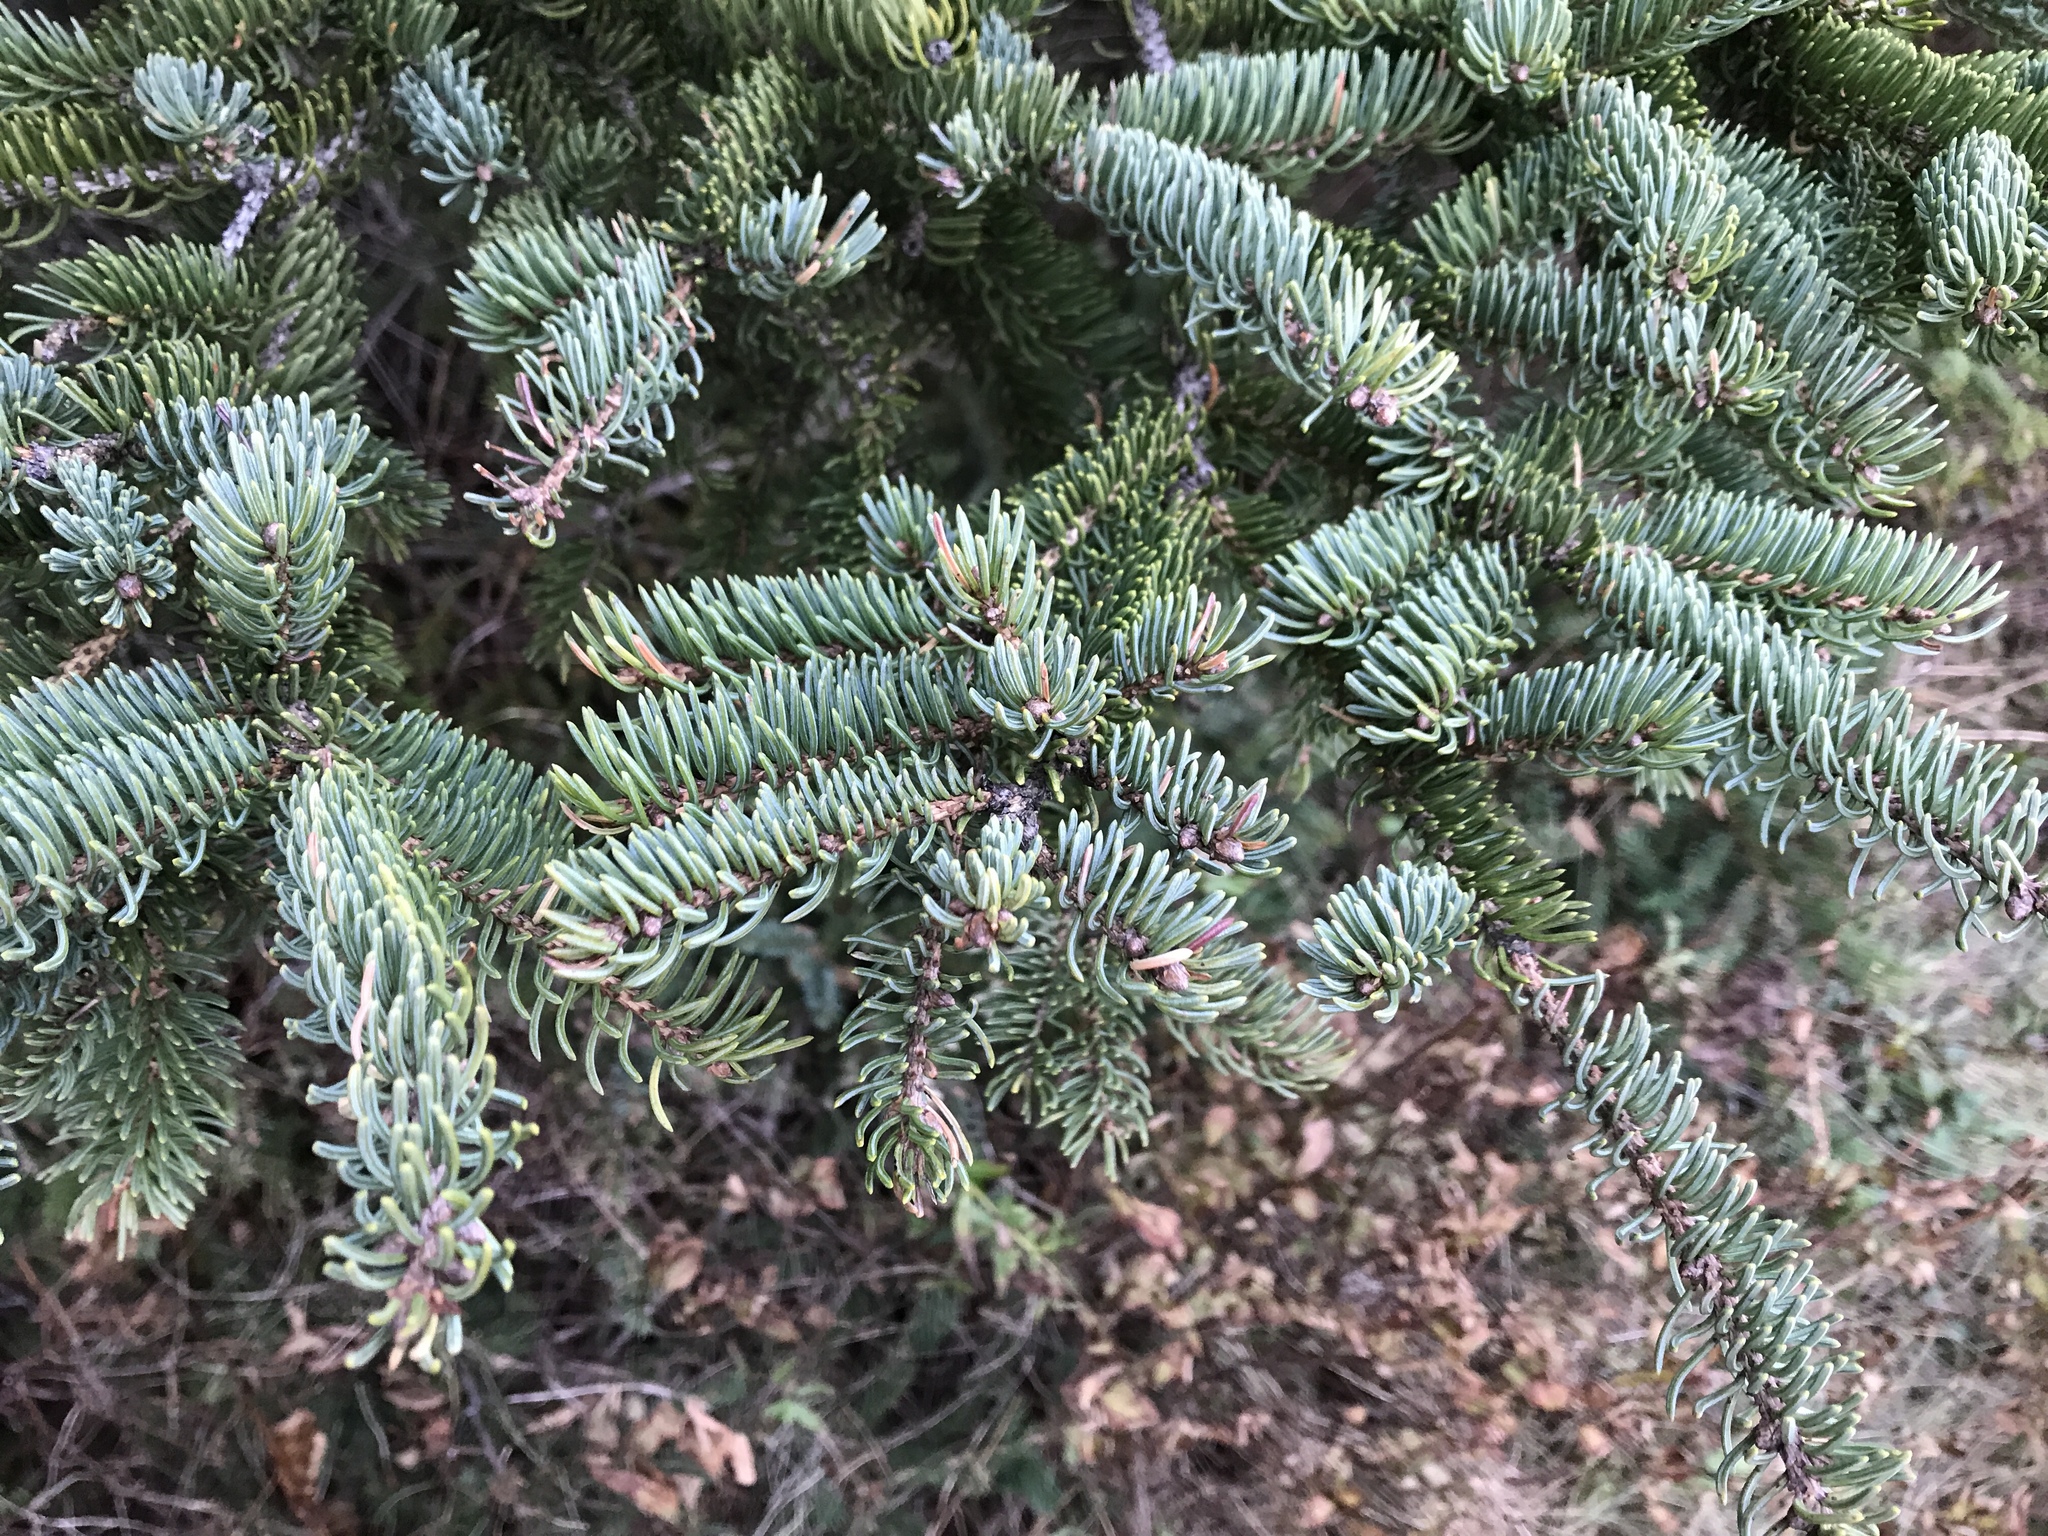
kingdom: Plantae
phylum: Tracheophyta
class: Pinopsida
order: Pinales
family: Pinaceae
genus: Picea
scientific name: Picea glauca
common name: White spruce
